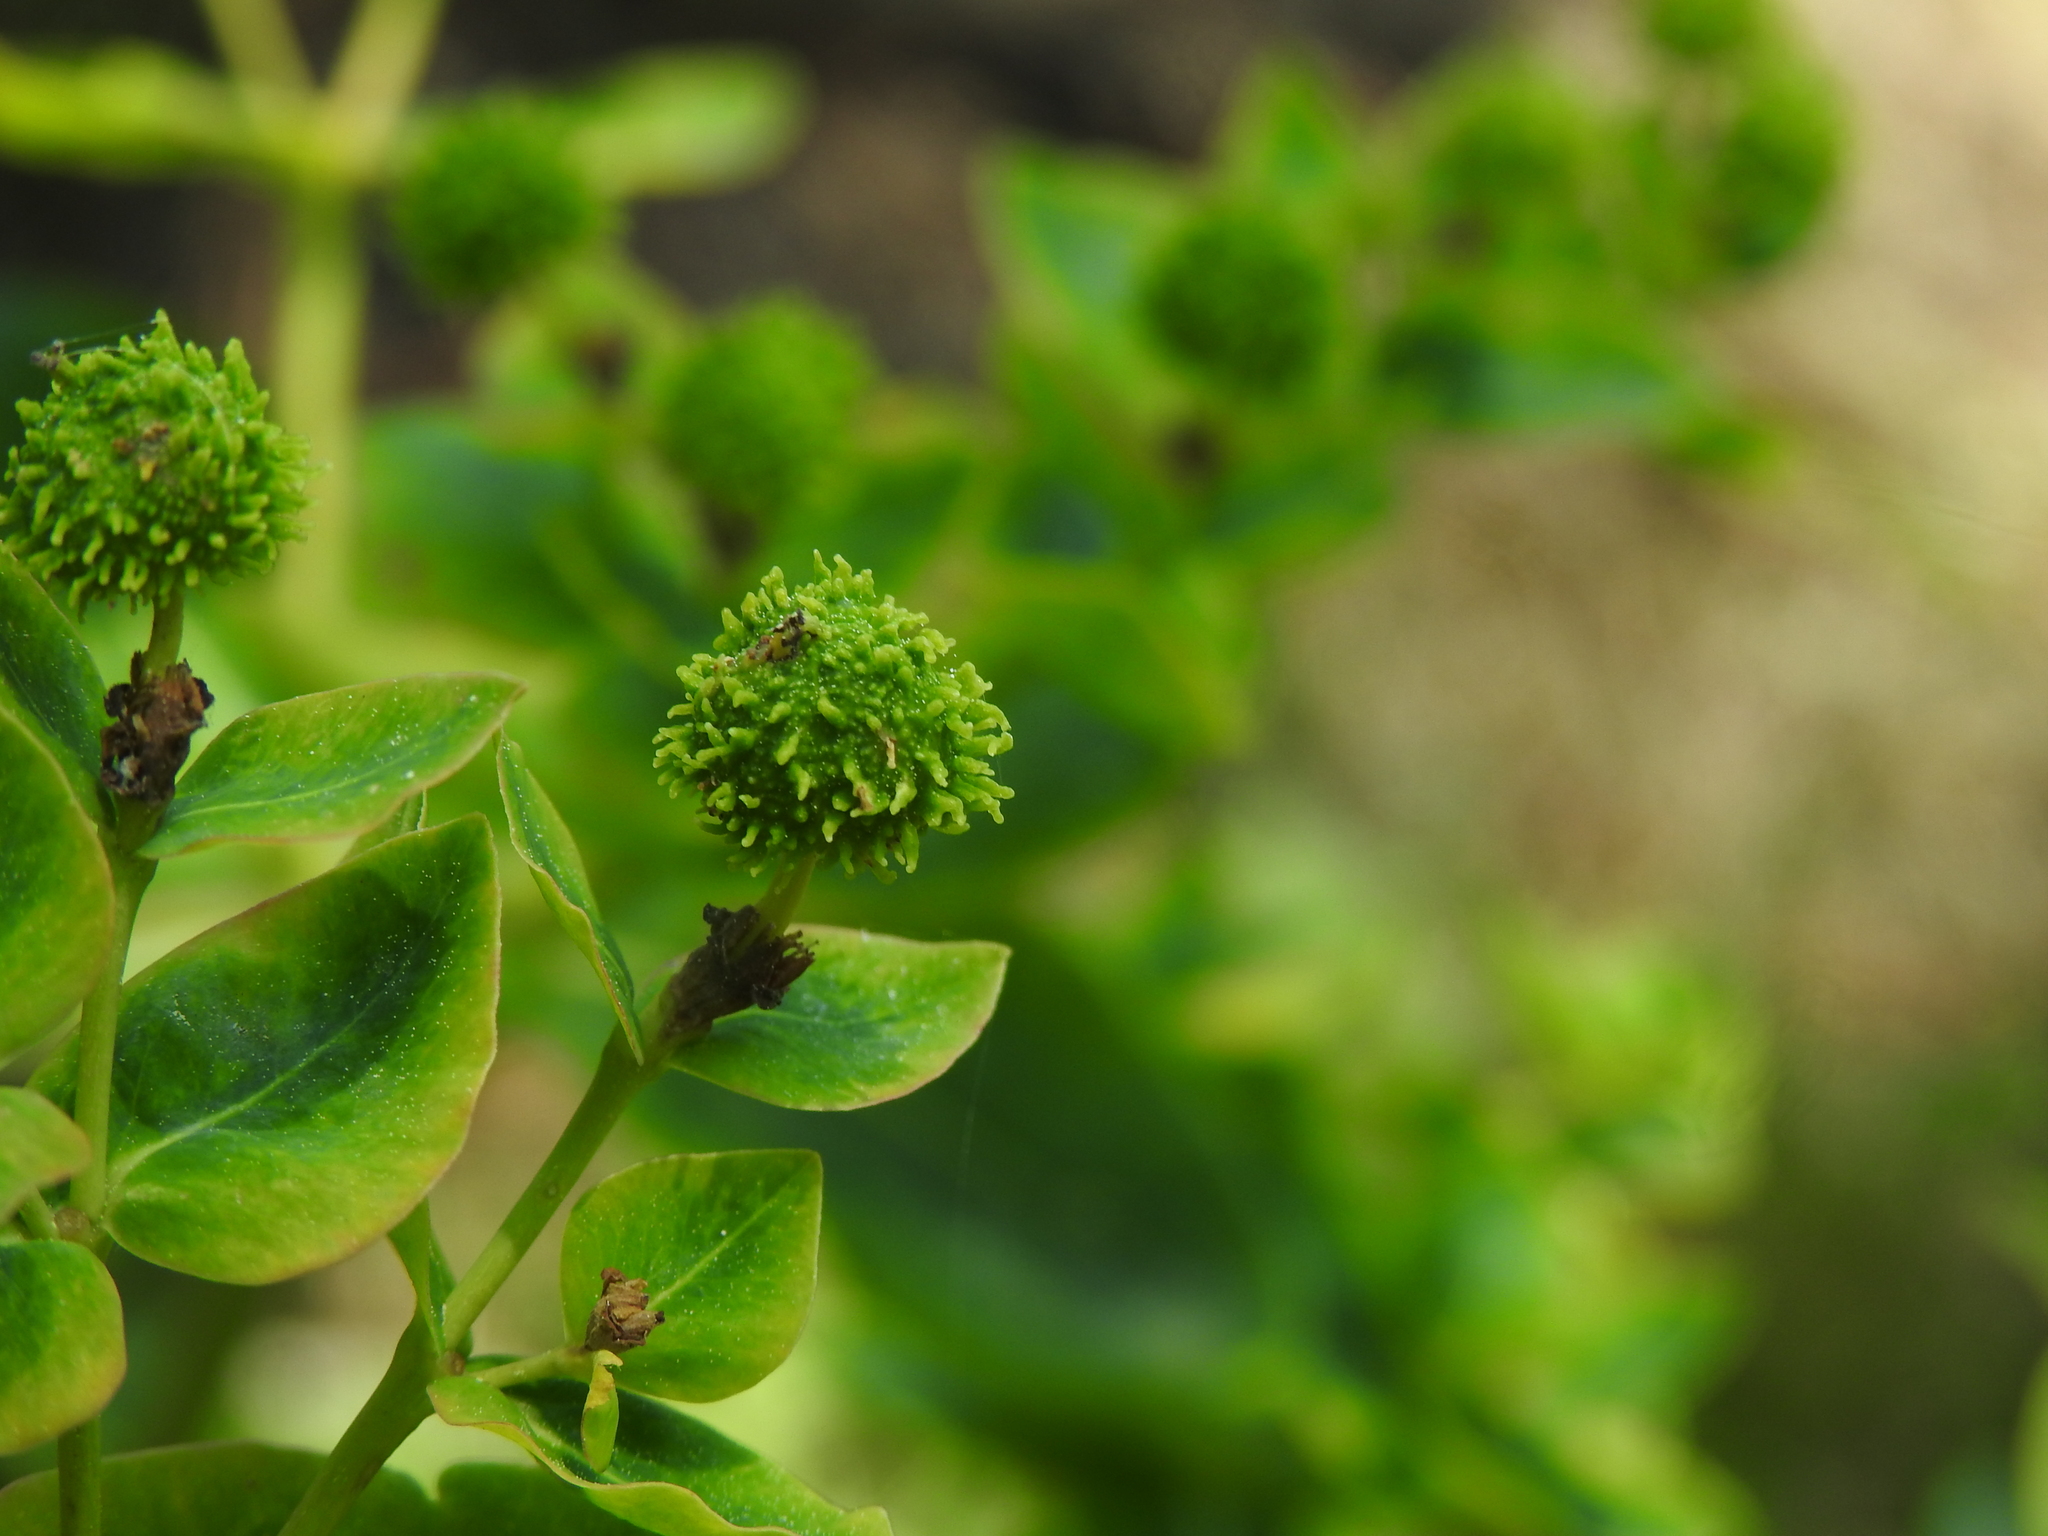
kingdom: Plantae
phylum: Tracheophyta
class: Magnoliopsida
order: Malpighiales
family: Euphorbiaceae
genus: Euphorbia
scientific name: Euphorbia hyberna
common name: Irish spurge
